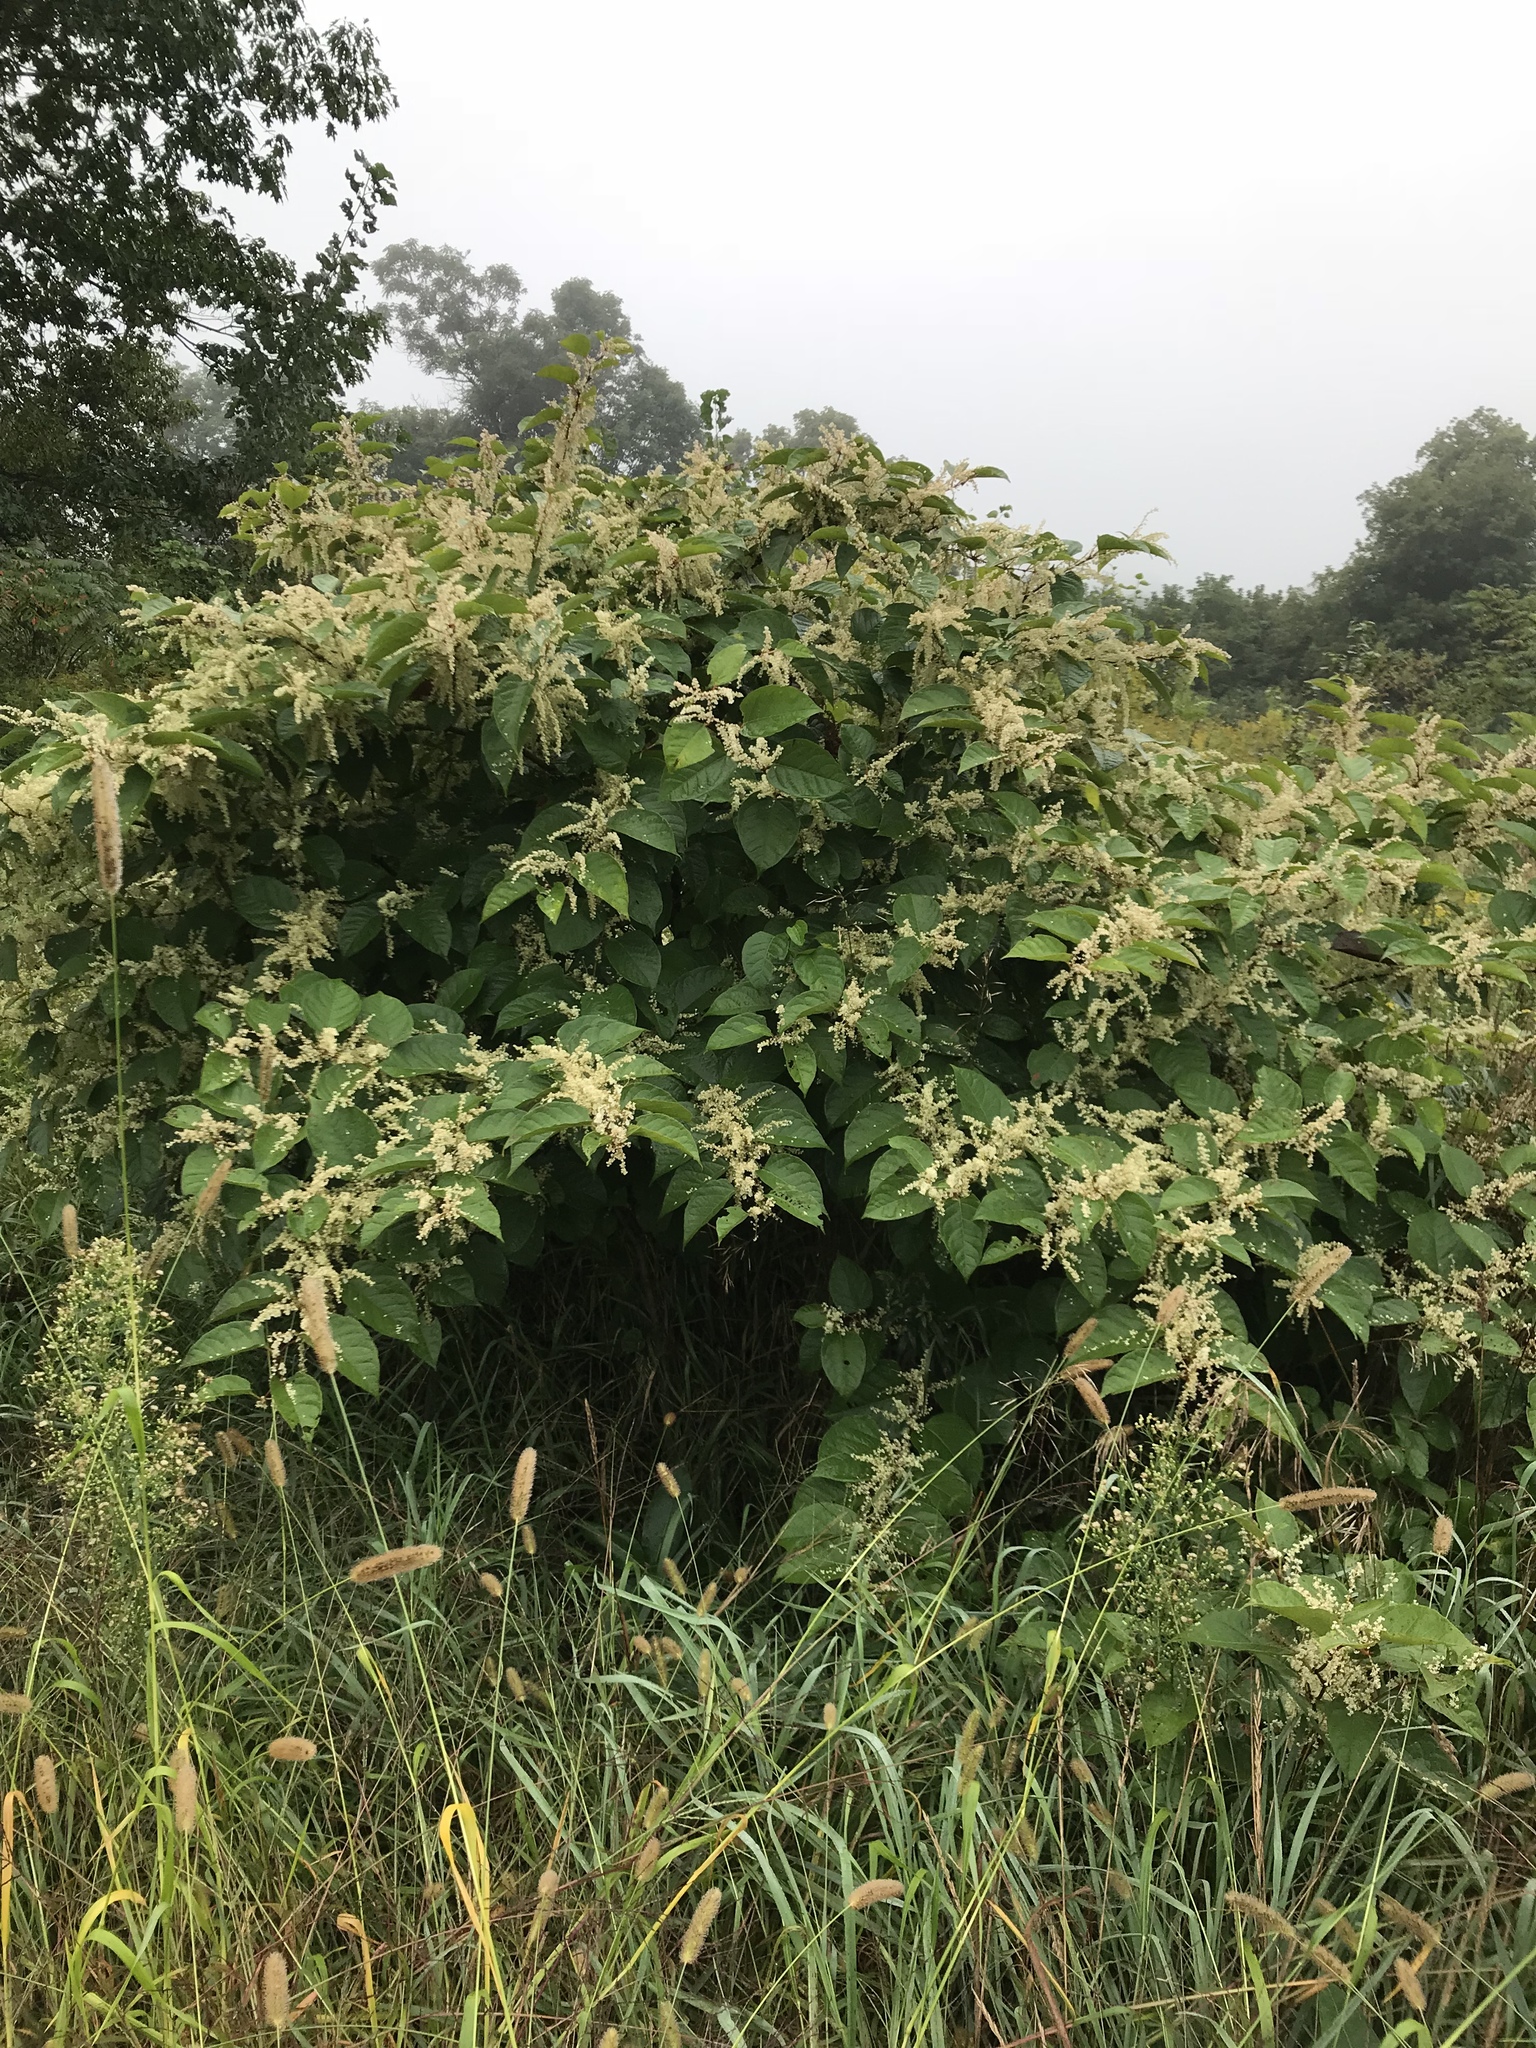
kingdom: Plantae
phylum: Tracheophyta
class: Magnoliopsida
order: Caryophyllales
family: Polygonaceae
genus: Reynoutria
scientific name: Reynoutria japonica
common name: Japanese knotweed
